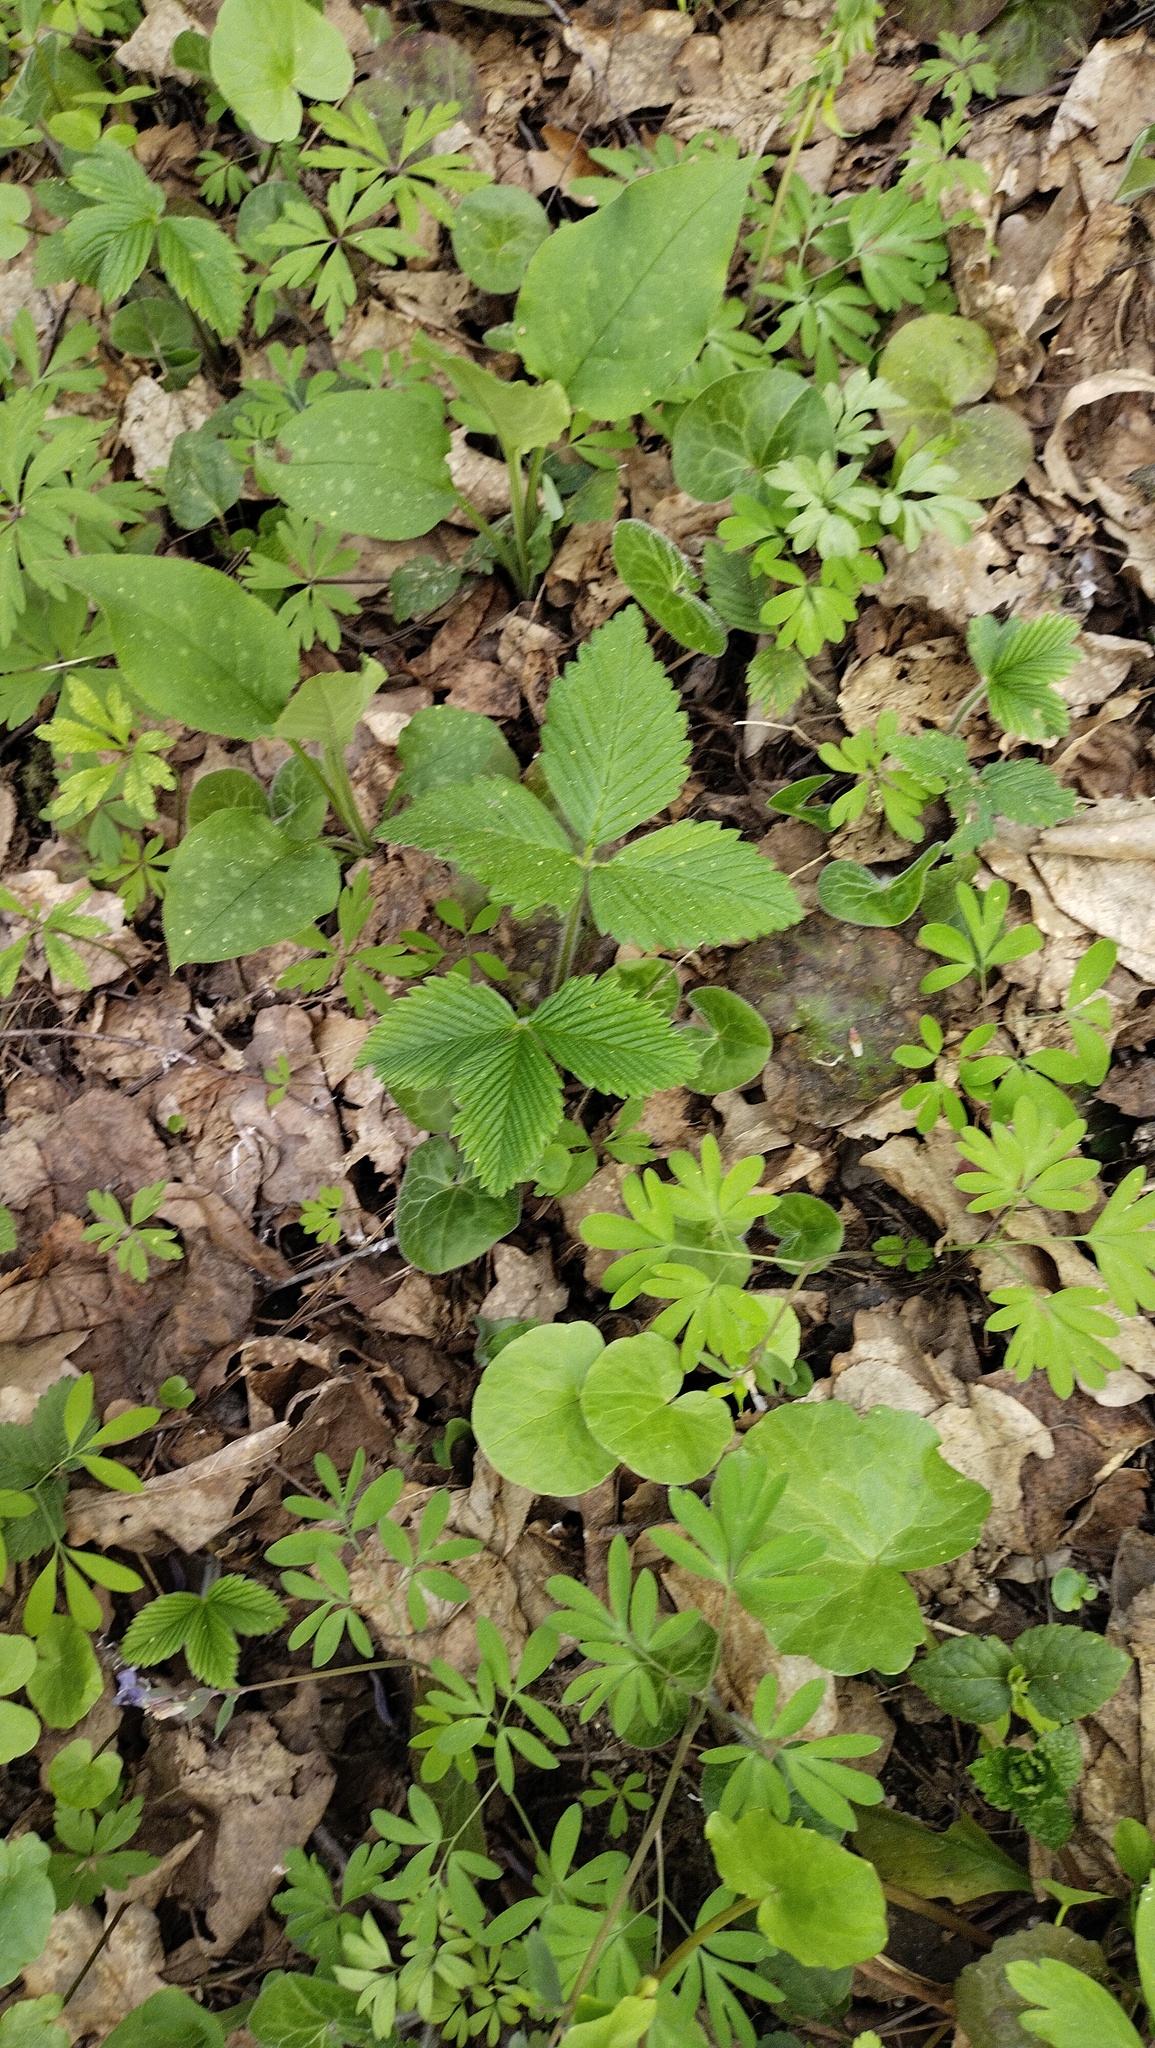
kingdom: Plantae
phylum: Tracheophyta
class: Magnoliopsida
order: Rosales
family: Rosaceae
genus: Fragaria
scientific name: Fragaria moschata
